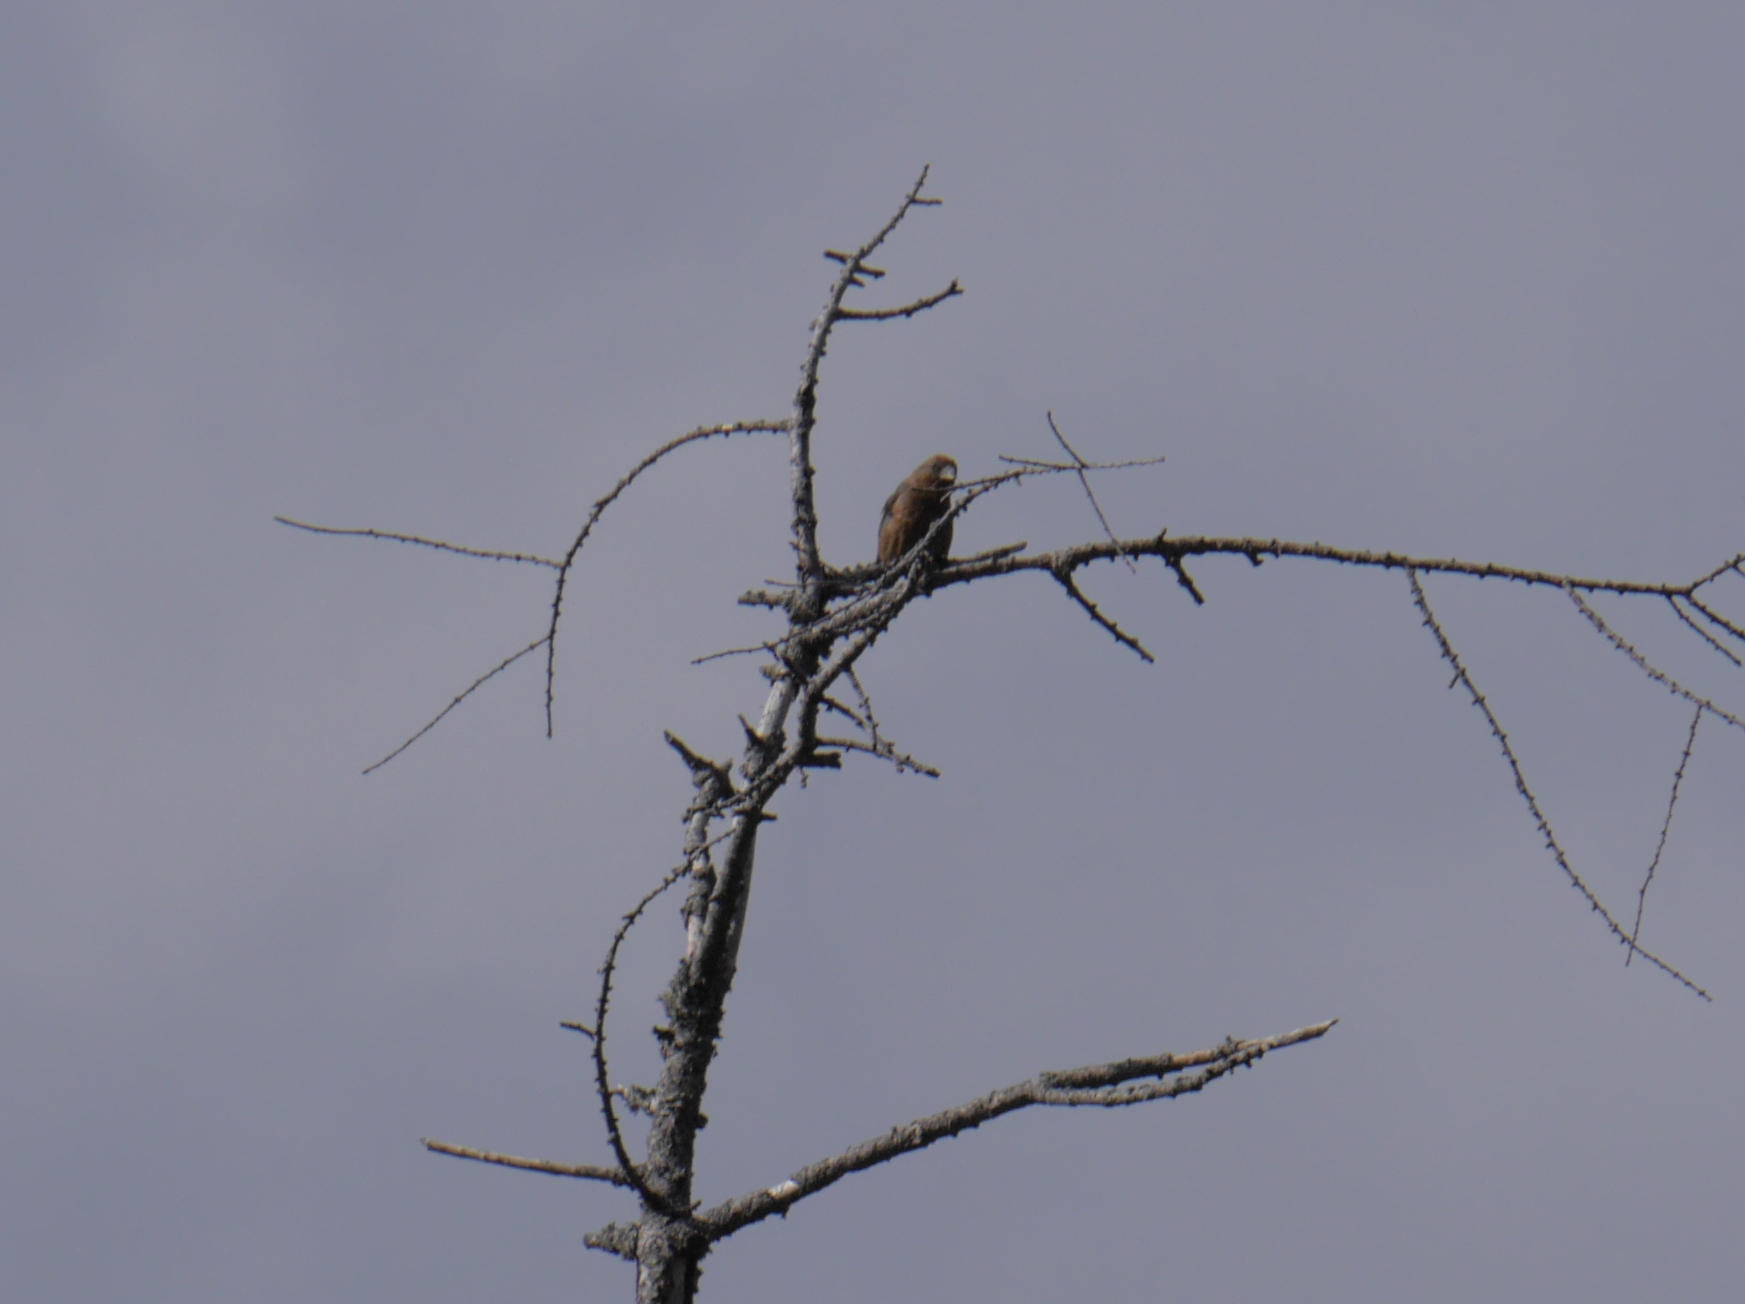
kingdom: Animalia
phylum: Chordata
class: Aves
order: Passeriformes
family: Fringillidae
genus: Loxia
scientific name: Loxia curvirostra
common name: Red crossbill
